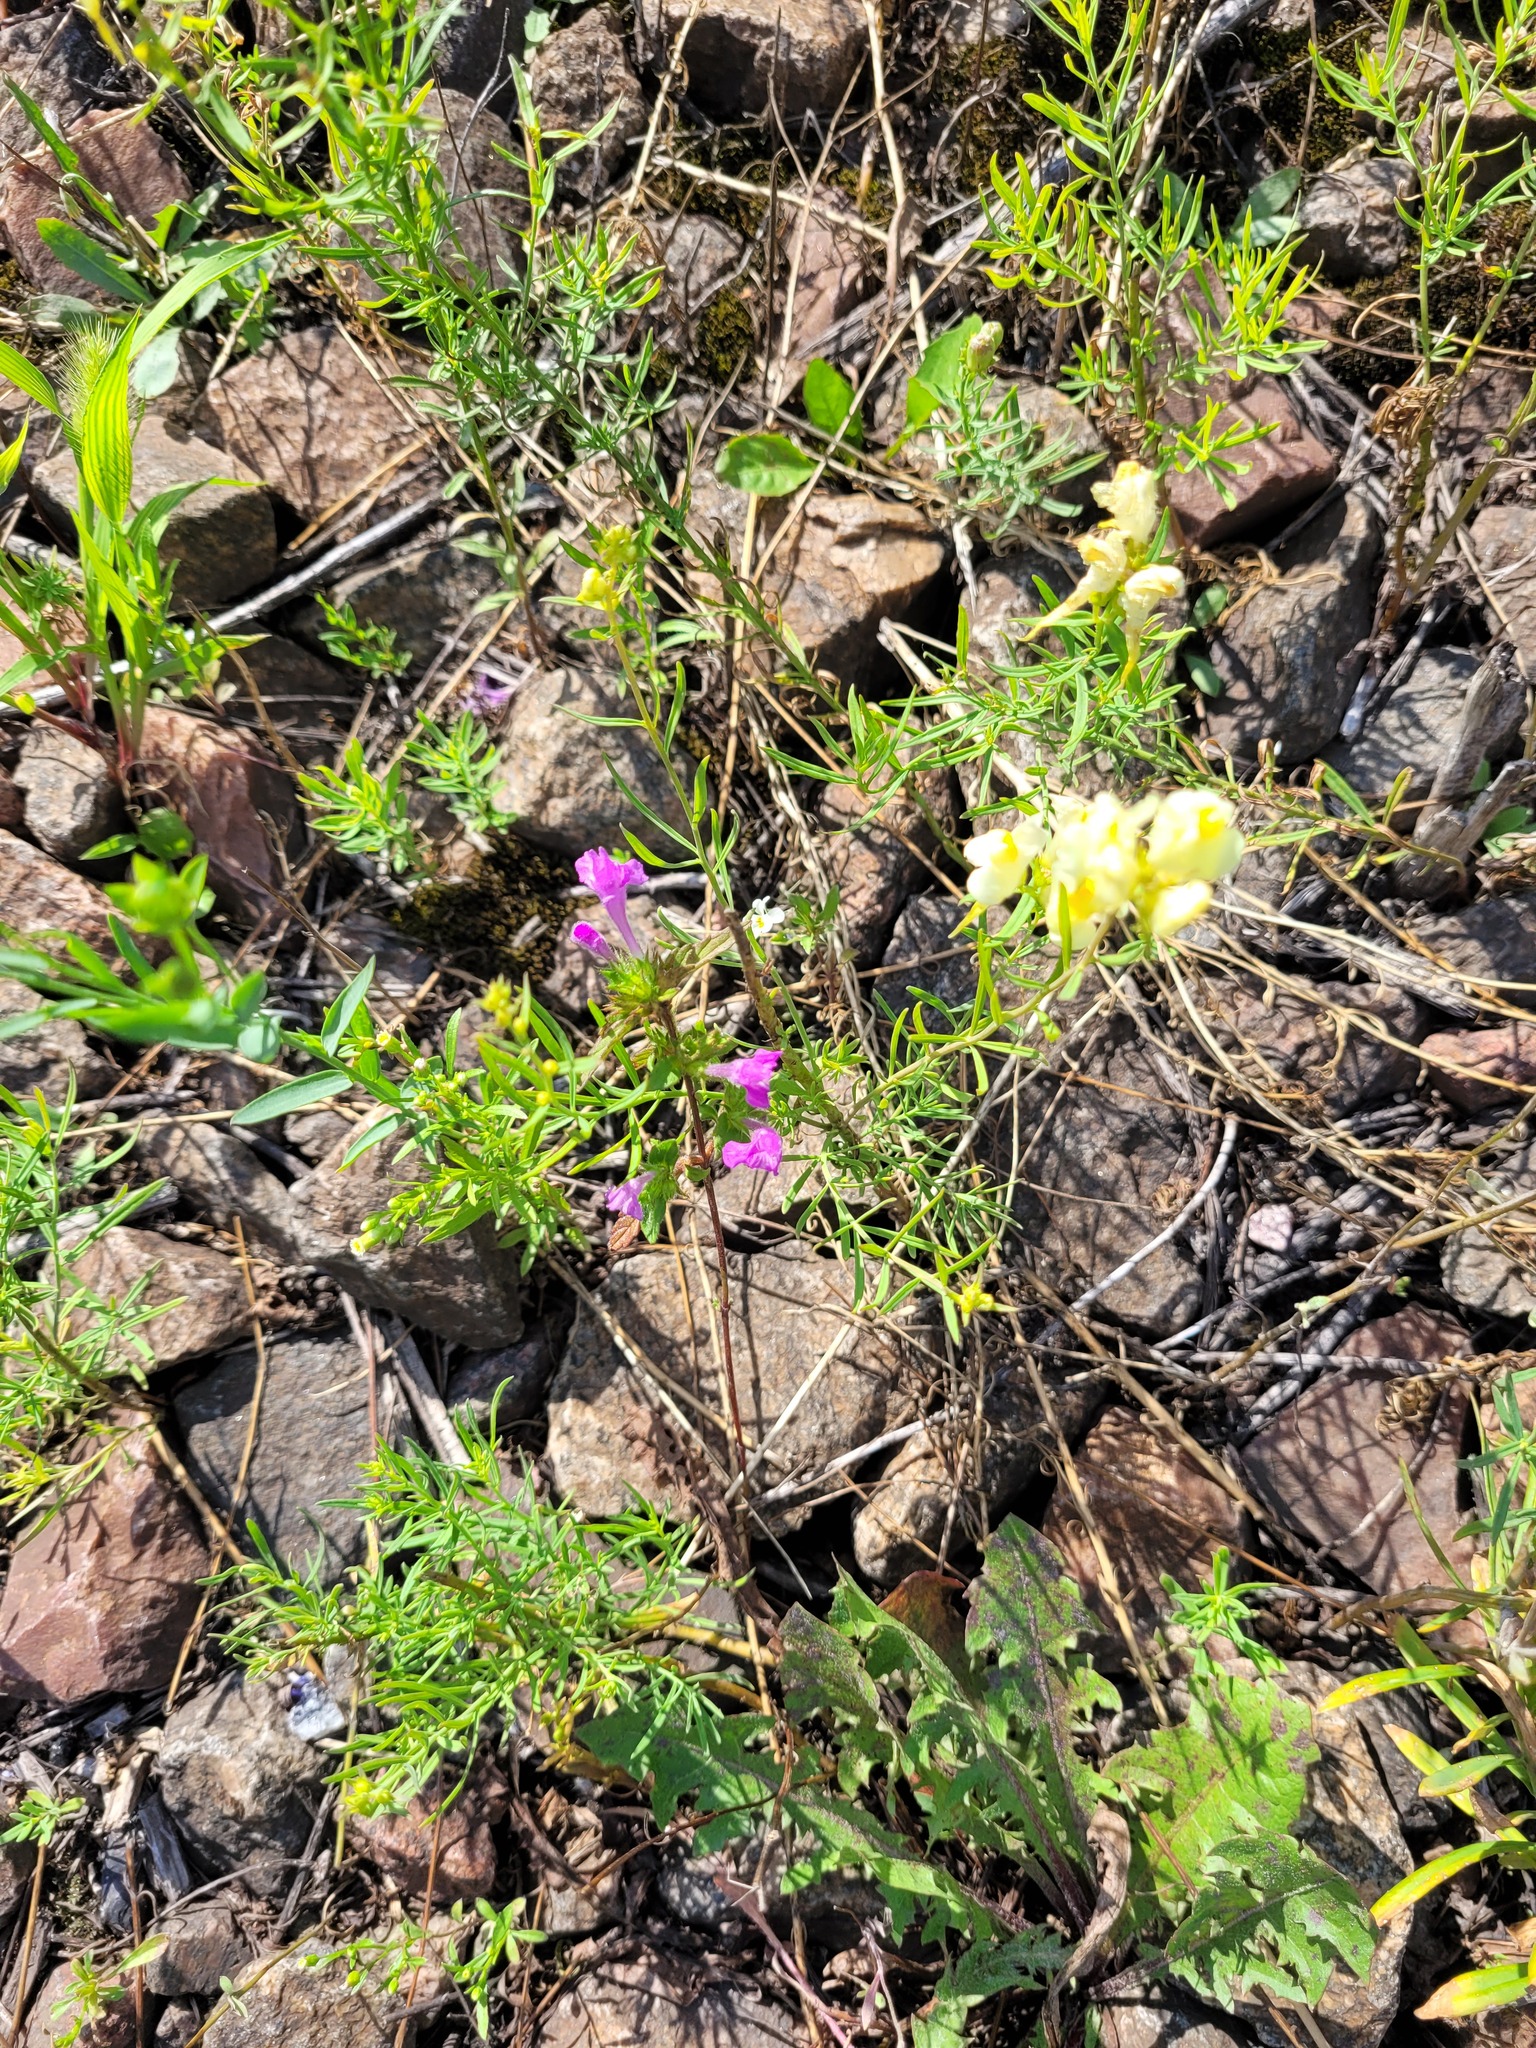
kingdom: Plantae
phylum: Tracheophyta
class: Magnoliopsida
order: Lamiales
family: Lamiaceae
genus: Galeopsis
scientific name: Galeopsis ladanum
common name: Broad-leaved hemp-nettle
